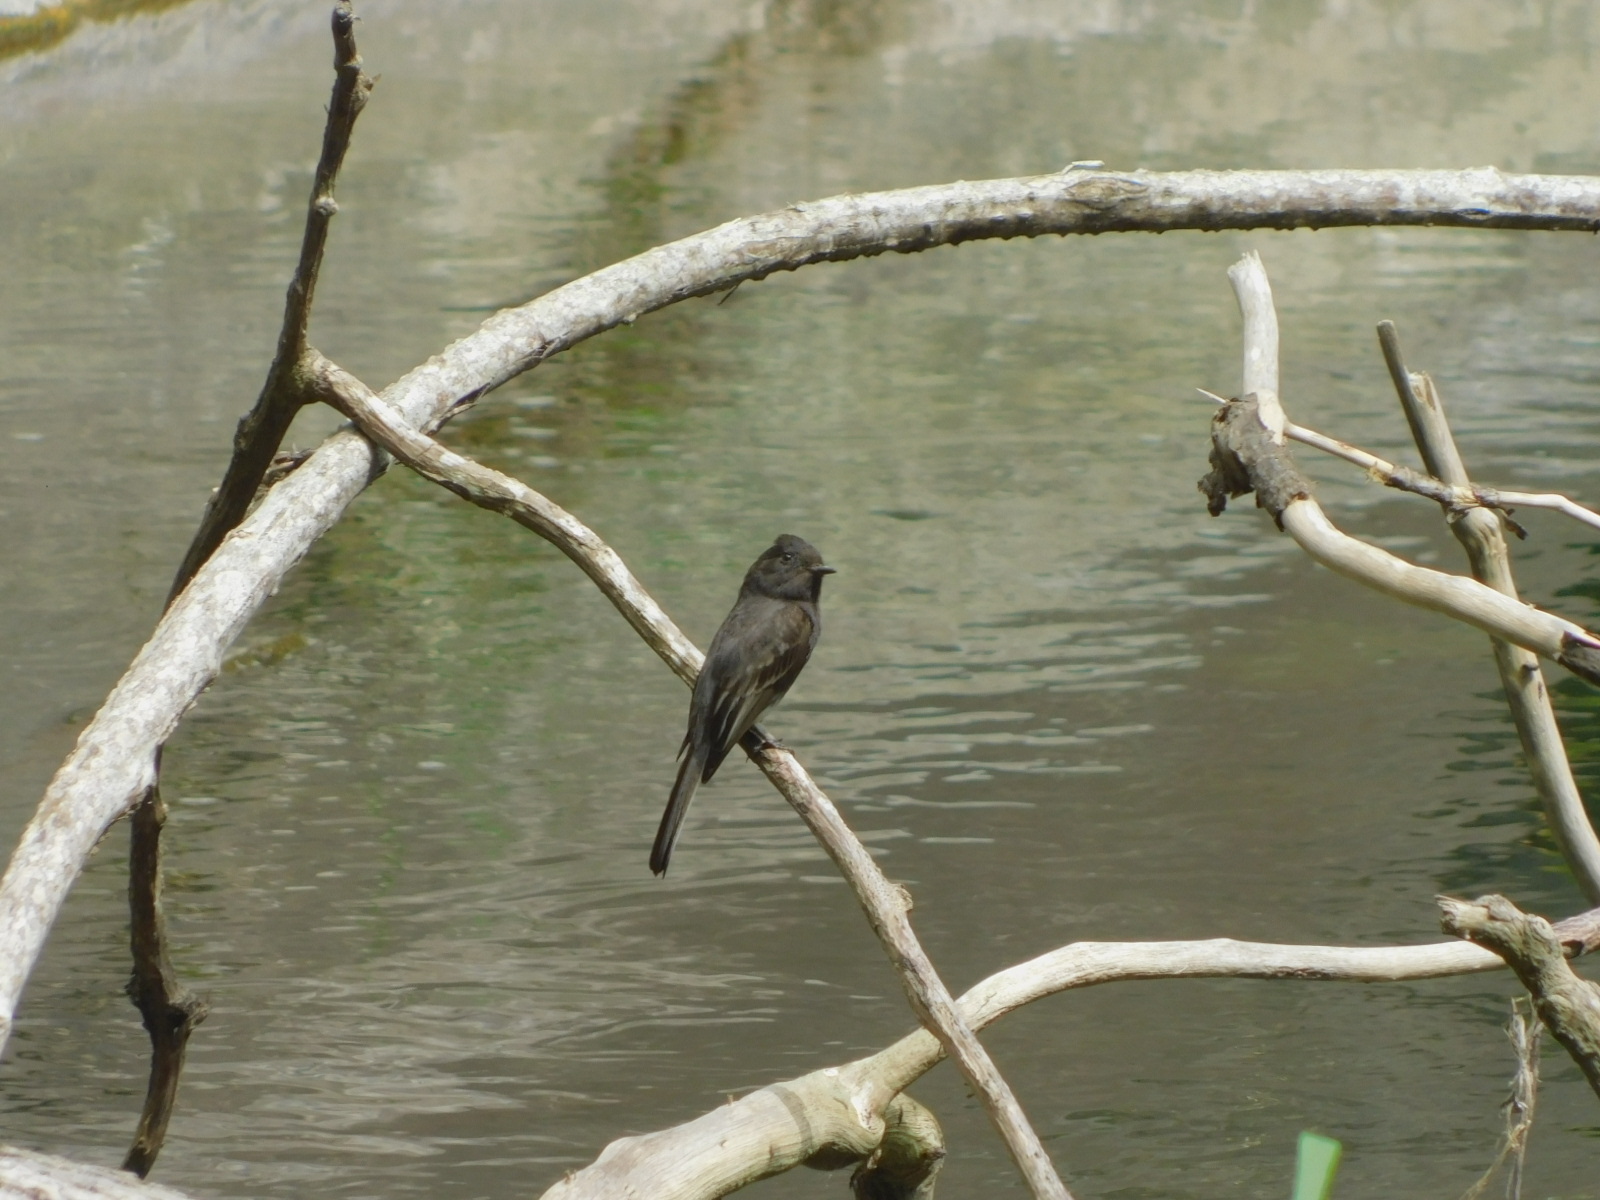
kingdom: Animalia
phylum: Chordata
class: Aves
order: Passeriformes
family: Tyrannidae
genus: Sayornis
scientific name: Sayornis nigricans
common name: Black phoebe
